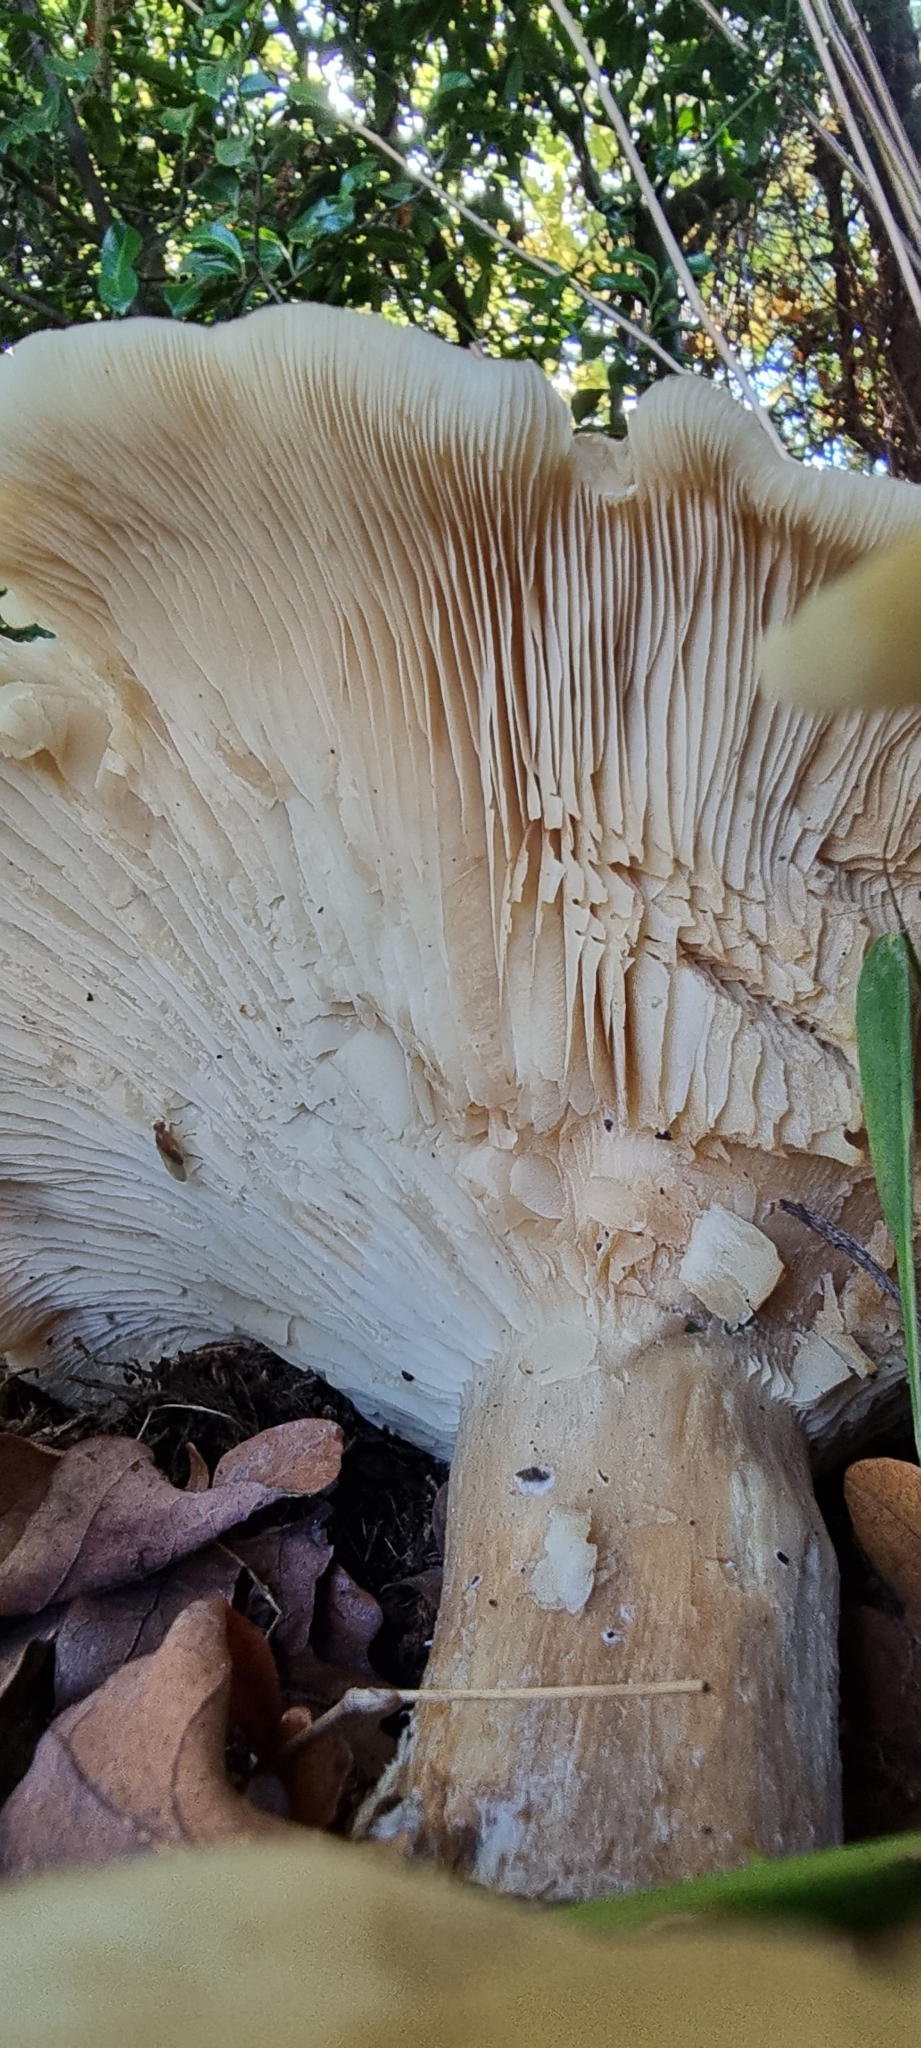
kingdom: Fungi
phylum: Basidiomycota
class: Agaricomycetes
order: Agaricales
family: Tricholomataceae
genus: Clitocybe
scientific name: Clitocybe nebularis
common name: Clouded agaric
